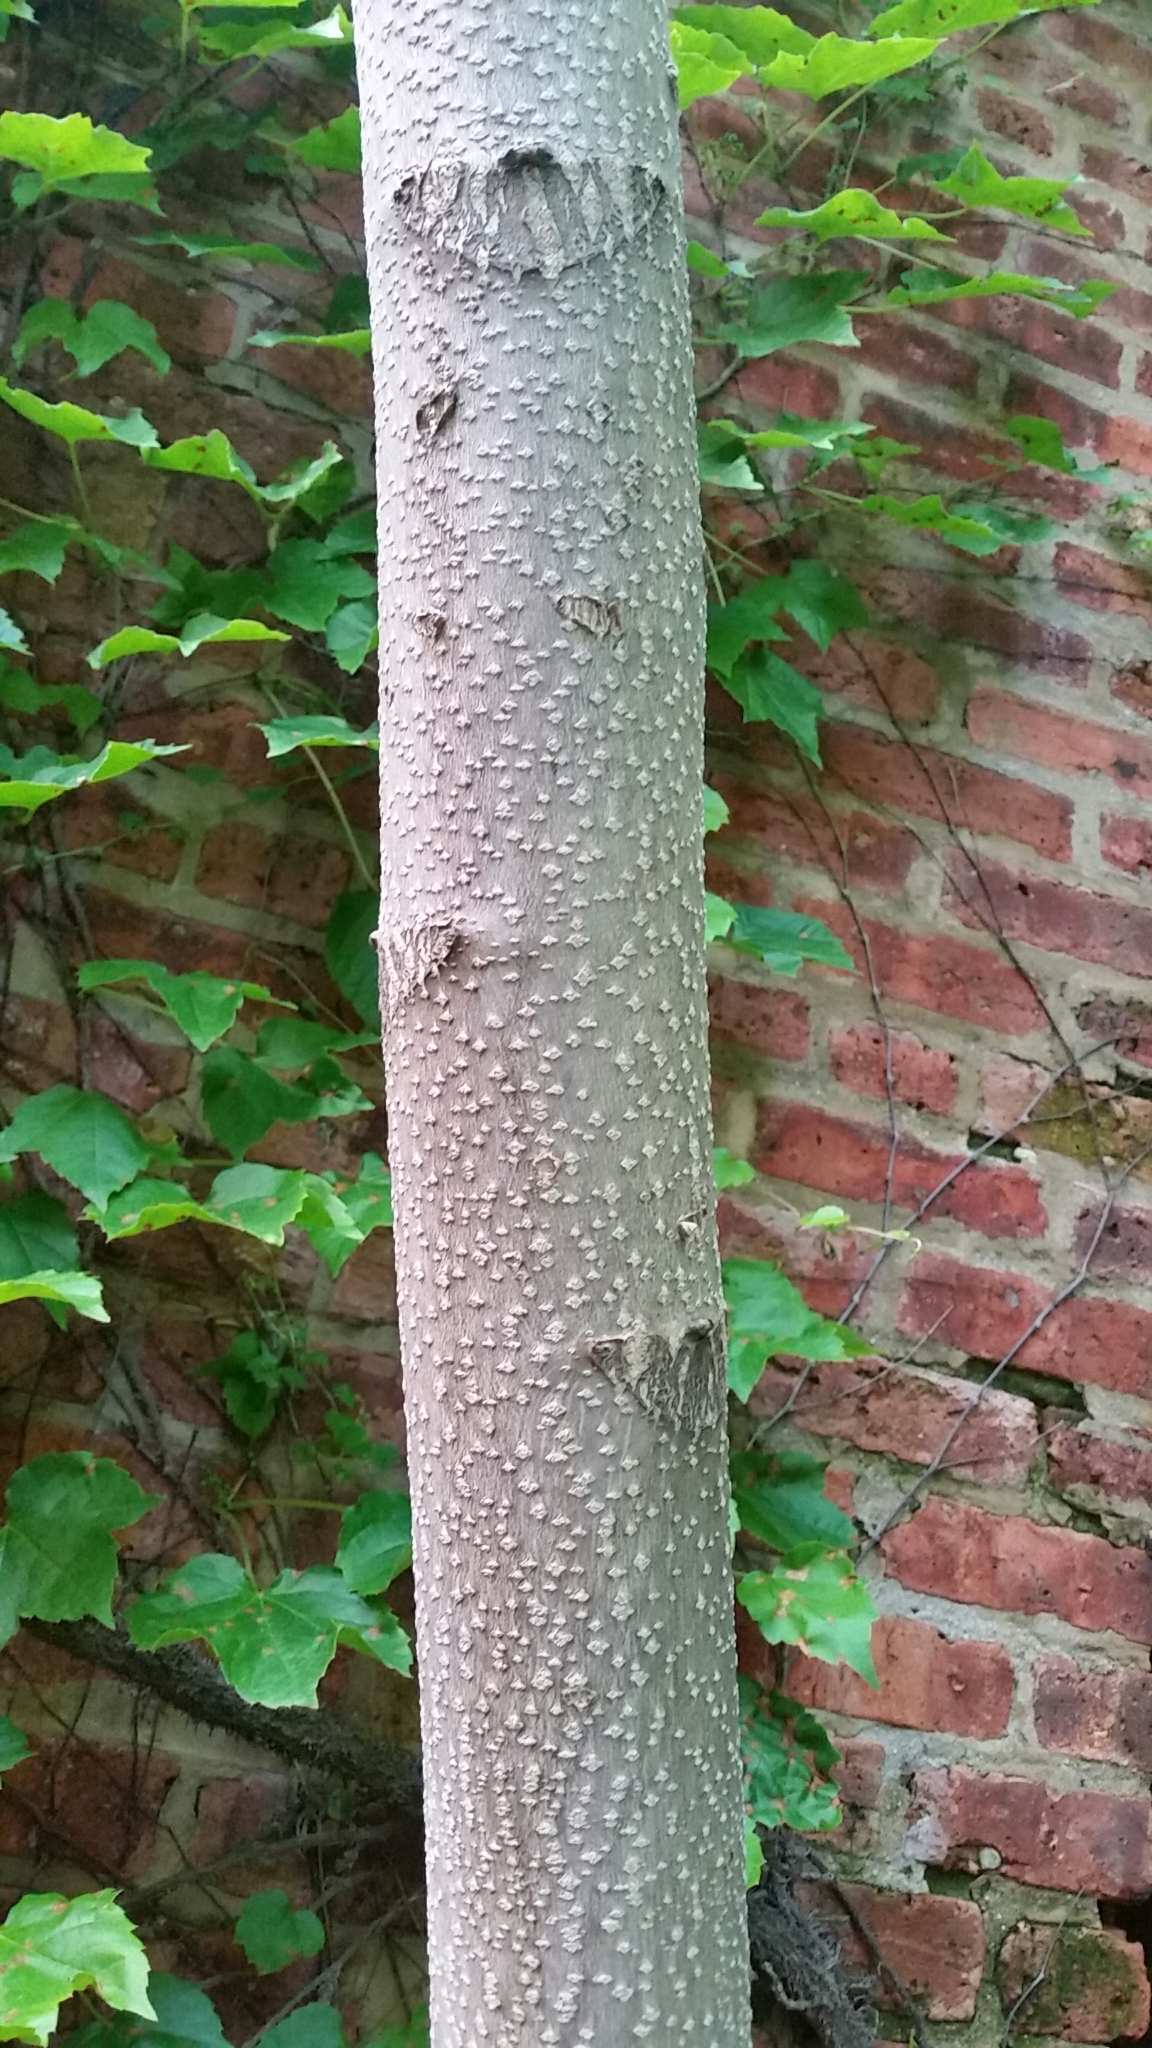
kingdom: Plantae
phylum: Tracheophyta
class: Magnoliopsida
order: Sapindales
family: Simaroubaceae
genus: Ailanthus
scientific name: Ailanthus altissima
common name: Tree-of-heaven
